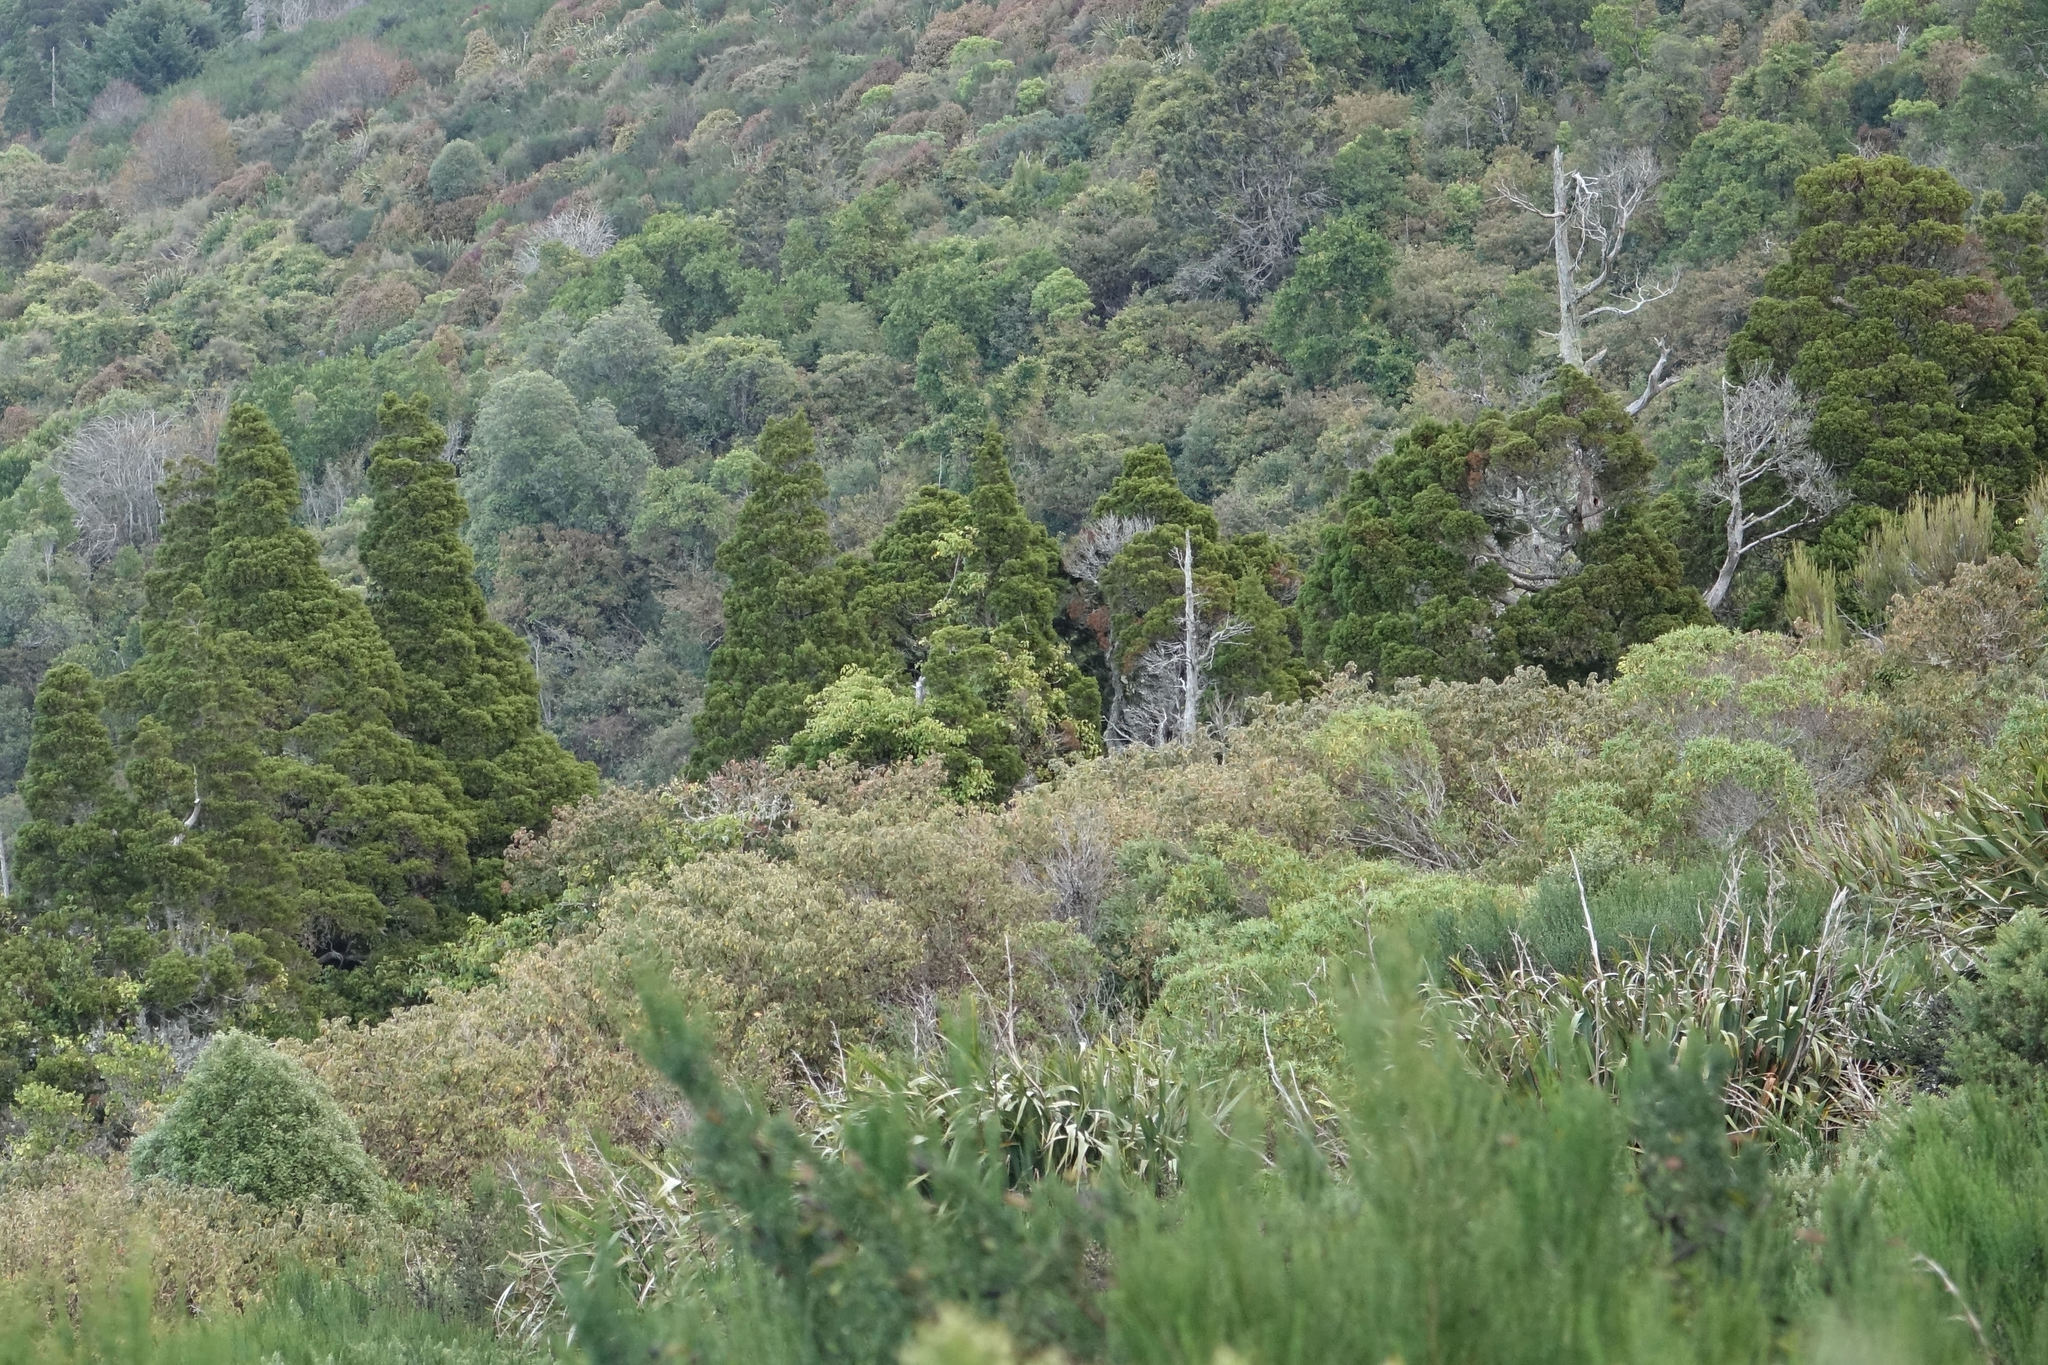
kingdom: Plantae
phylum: Tracheophyta
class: Pinopsida
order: Pinales
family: Cupressaceae
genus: Libocedrus
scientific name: Libocedrus bidwillii
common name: Cedar
